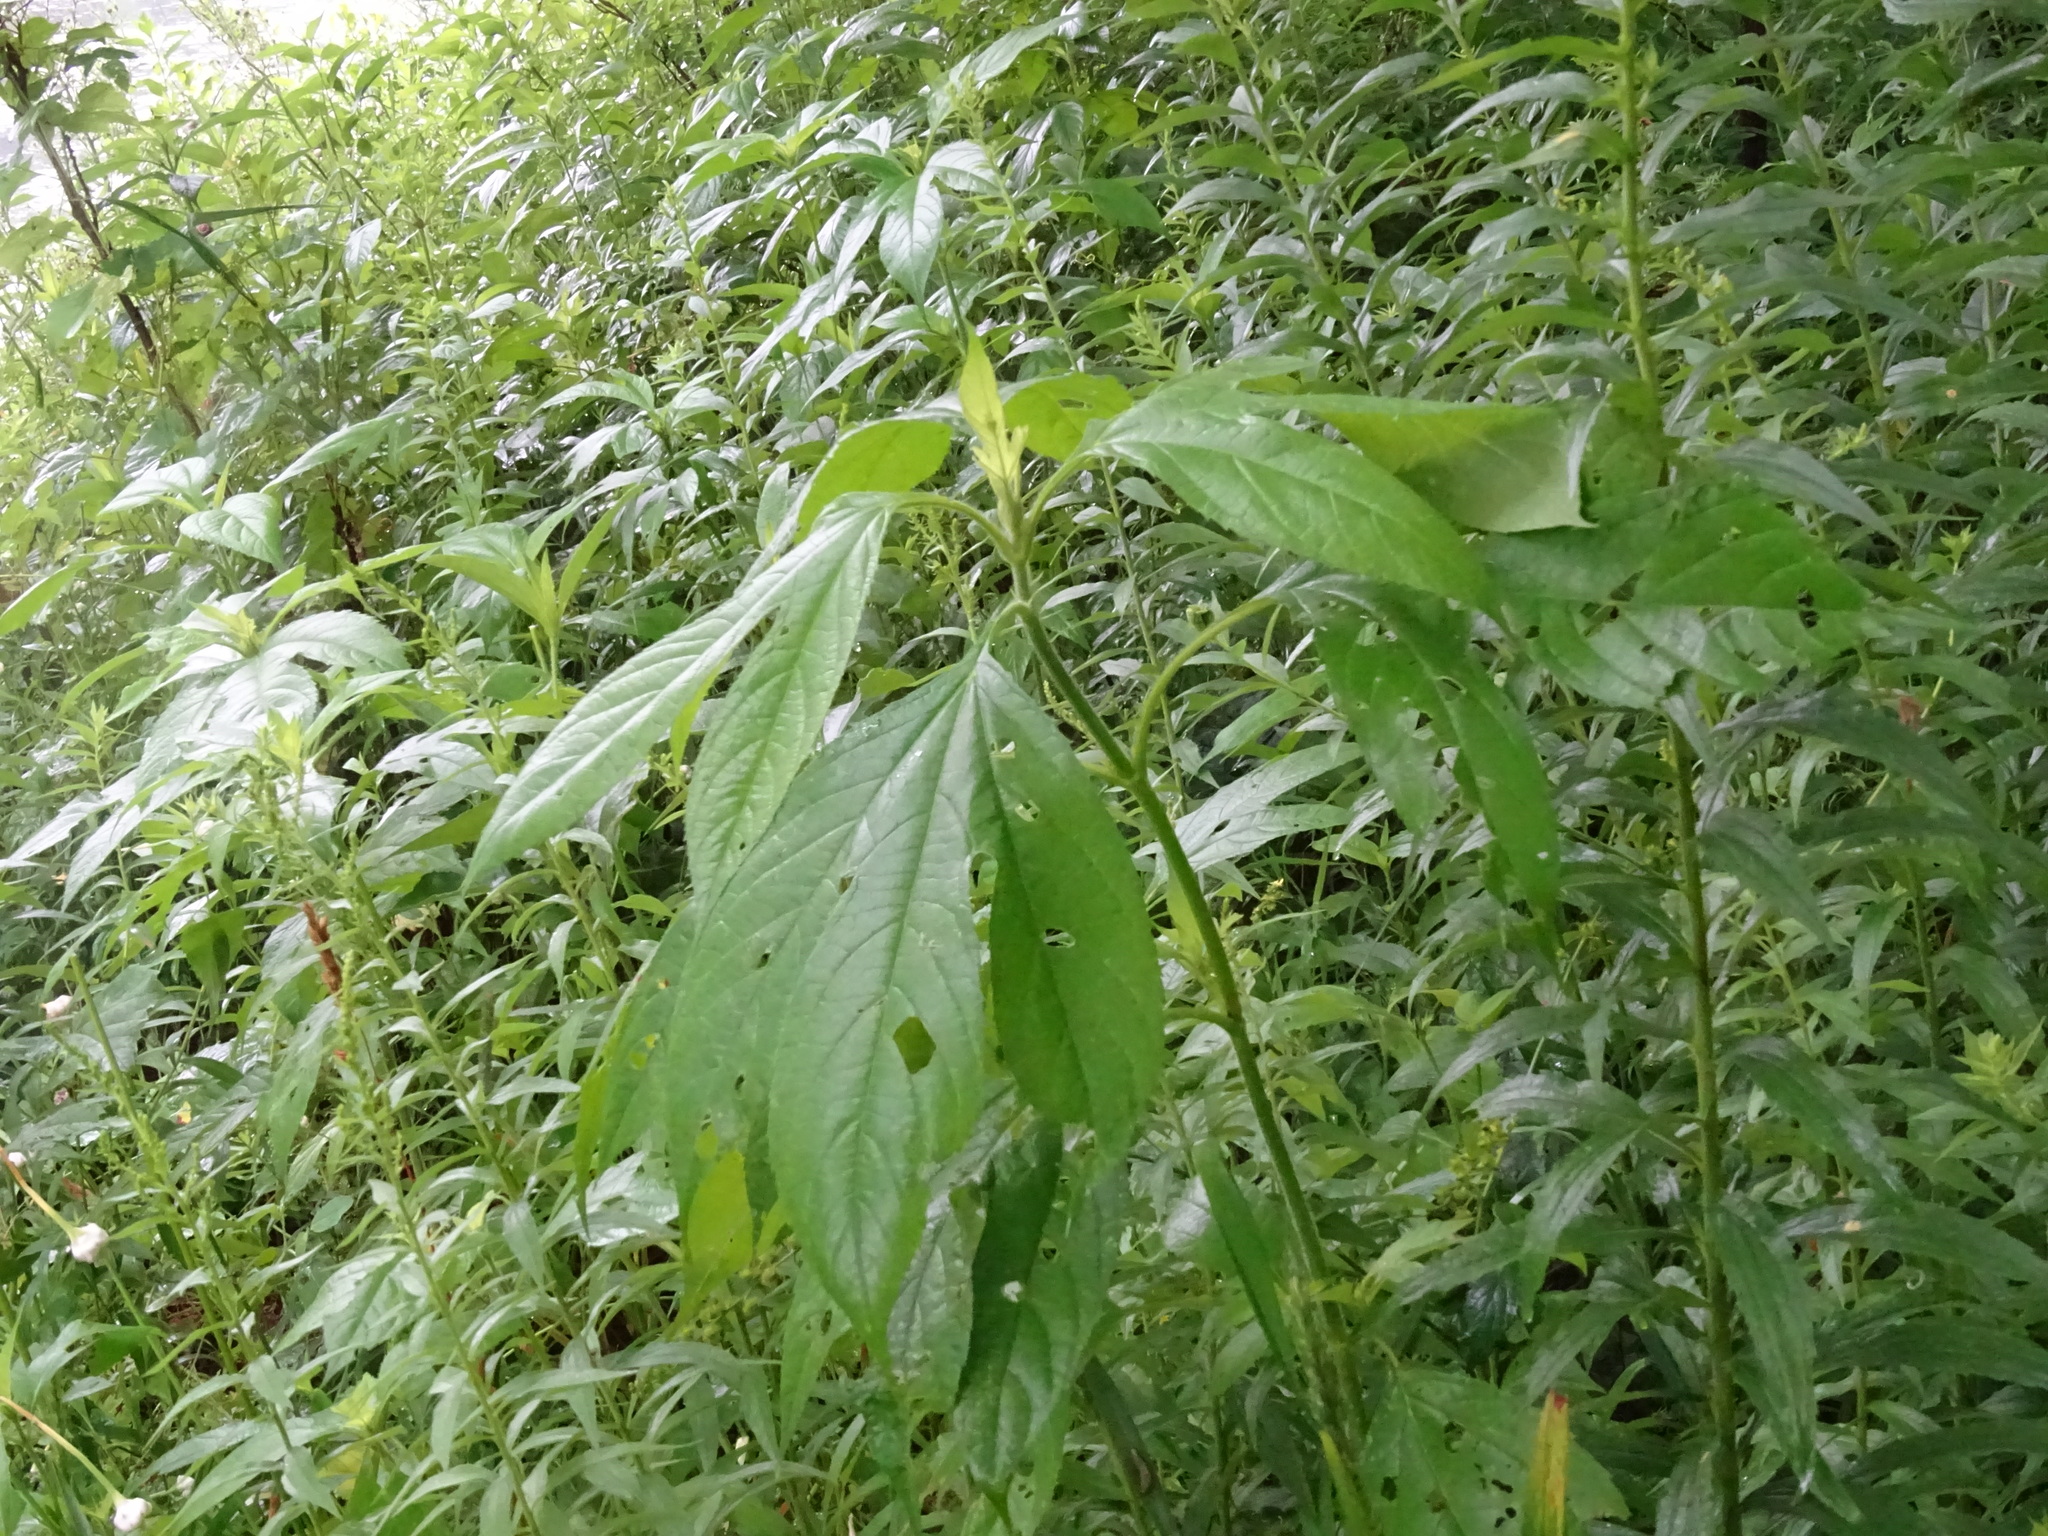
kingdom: Plantae
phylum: Tracheophyta
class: Magnoliopsida
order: Asterales
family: Asteraceae
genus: Ambrosia
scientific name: Ambrosia trifida
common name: Giant ragweed
